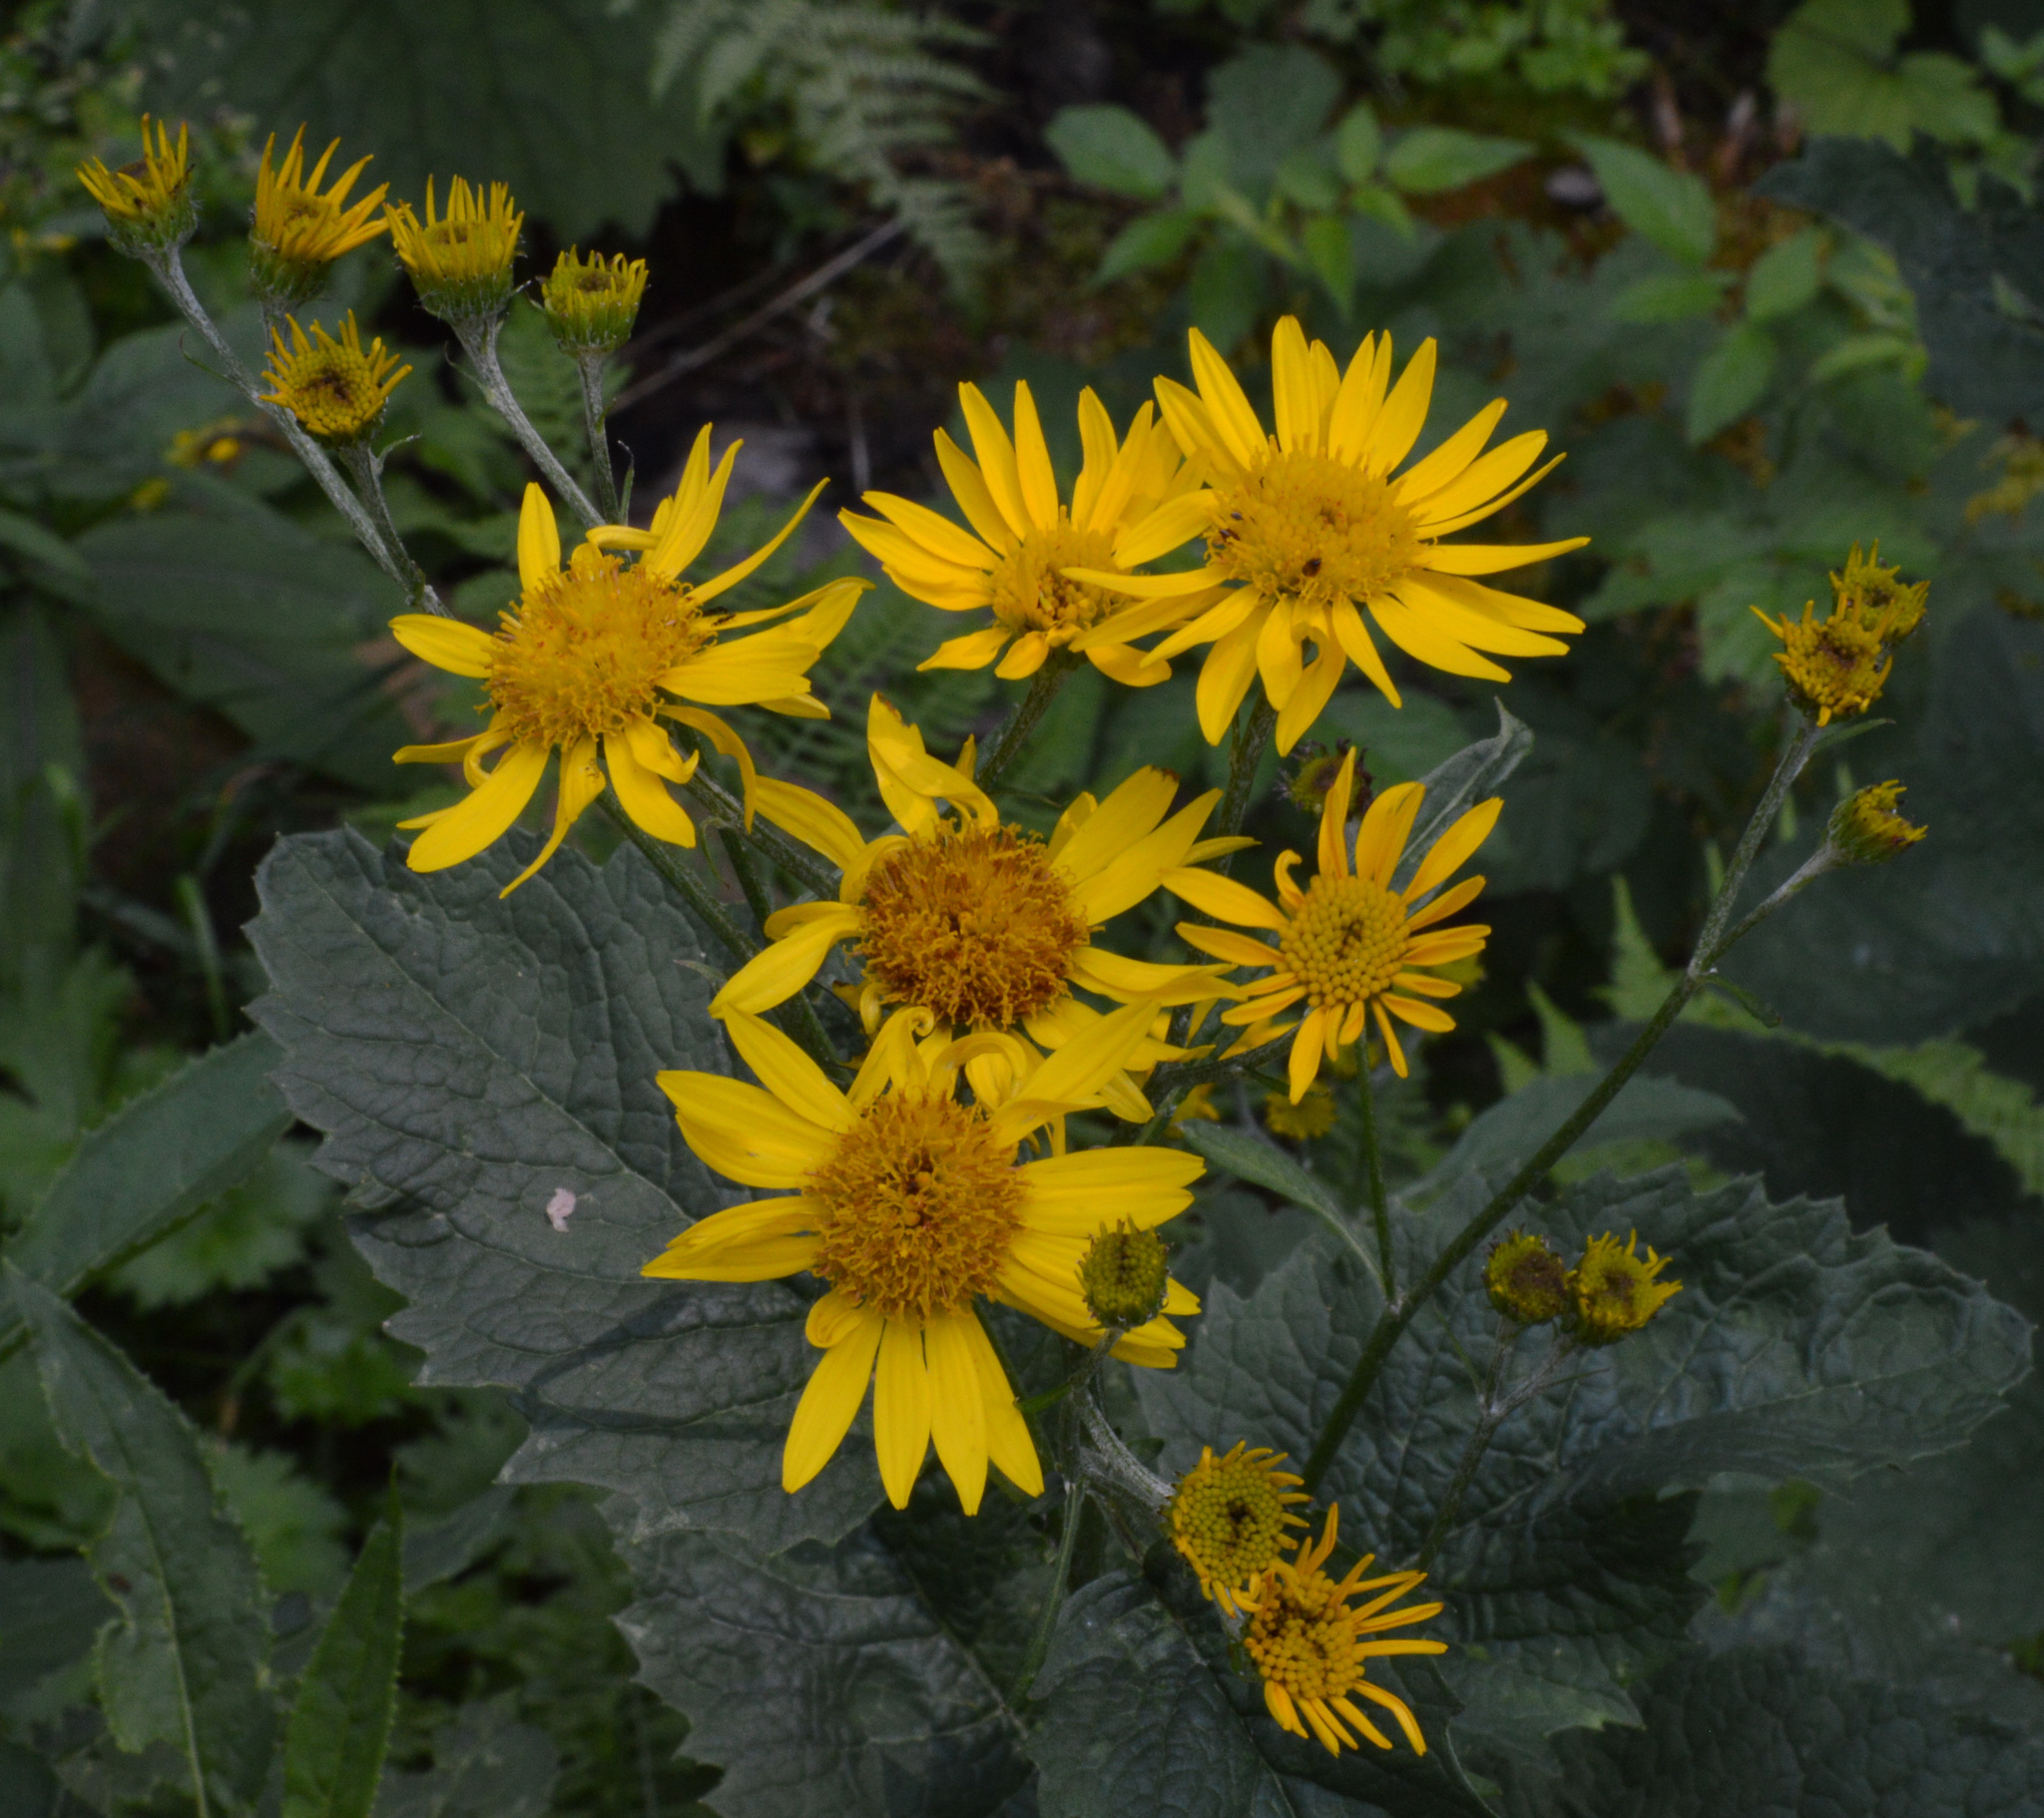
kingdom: Plantae
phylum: Tracheophyta
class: Magnoliopsida
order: Asterales
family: Asteraceae
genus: Jacobaea
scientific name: Jacobaea alpina
